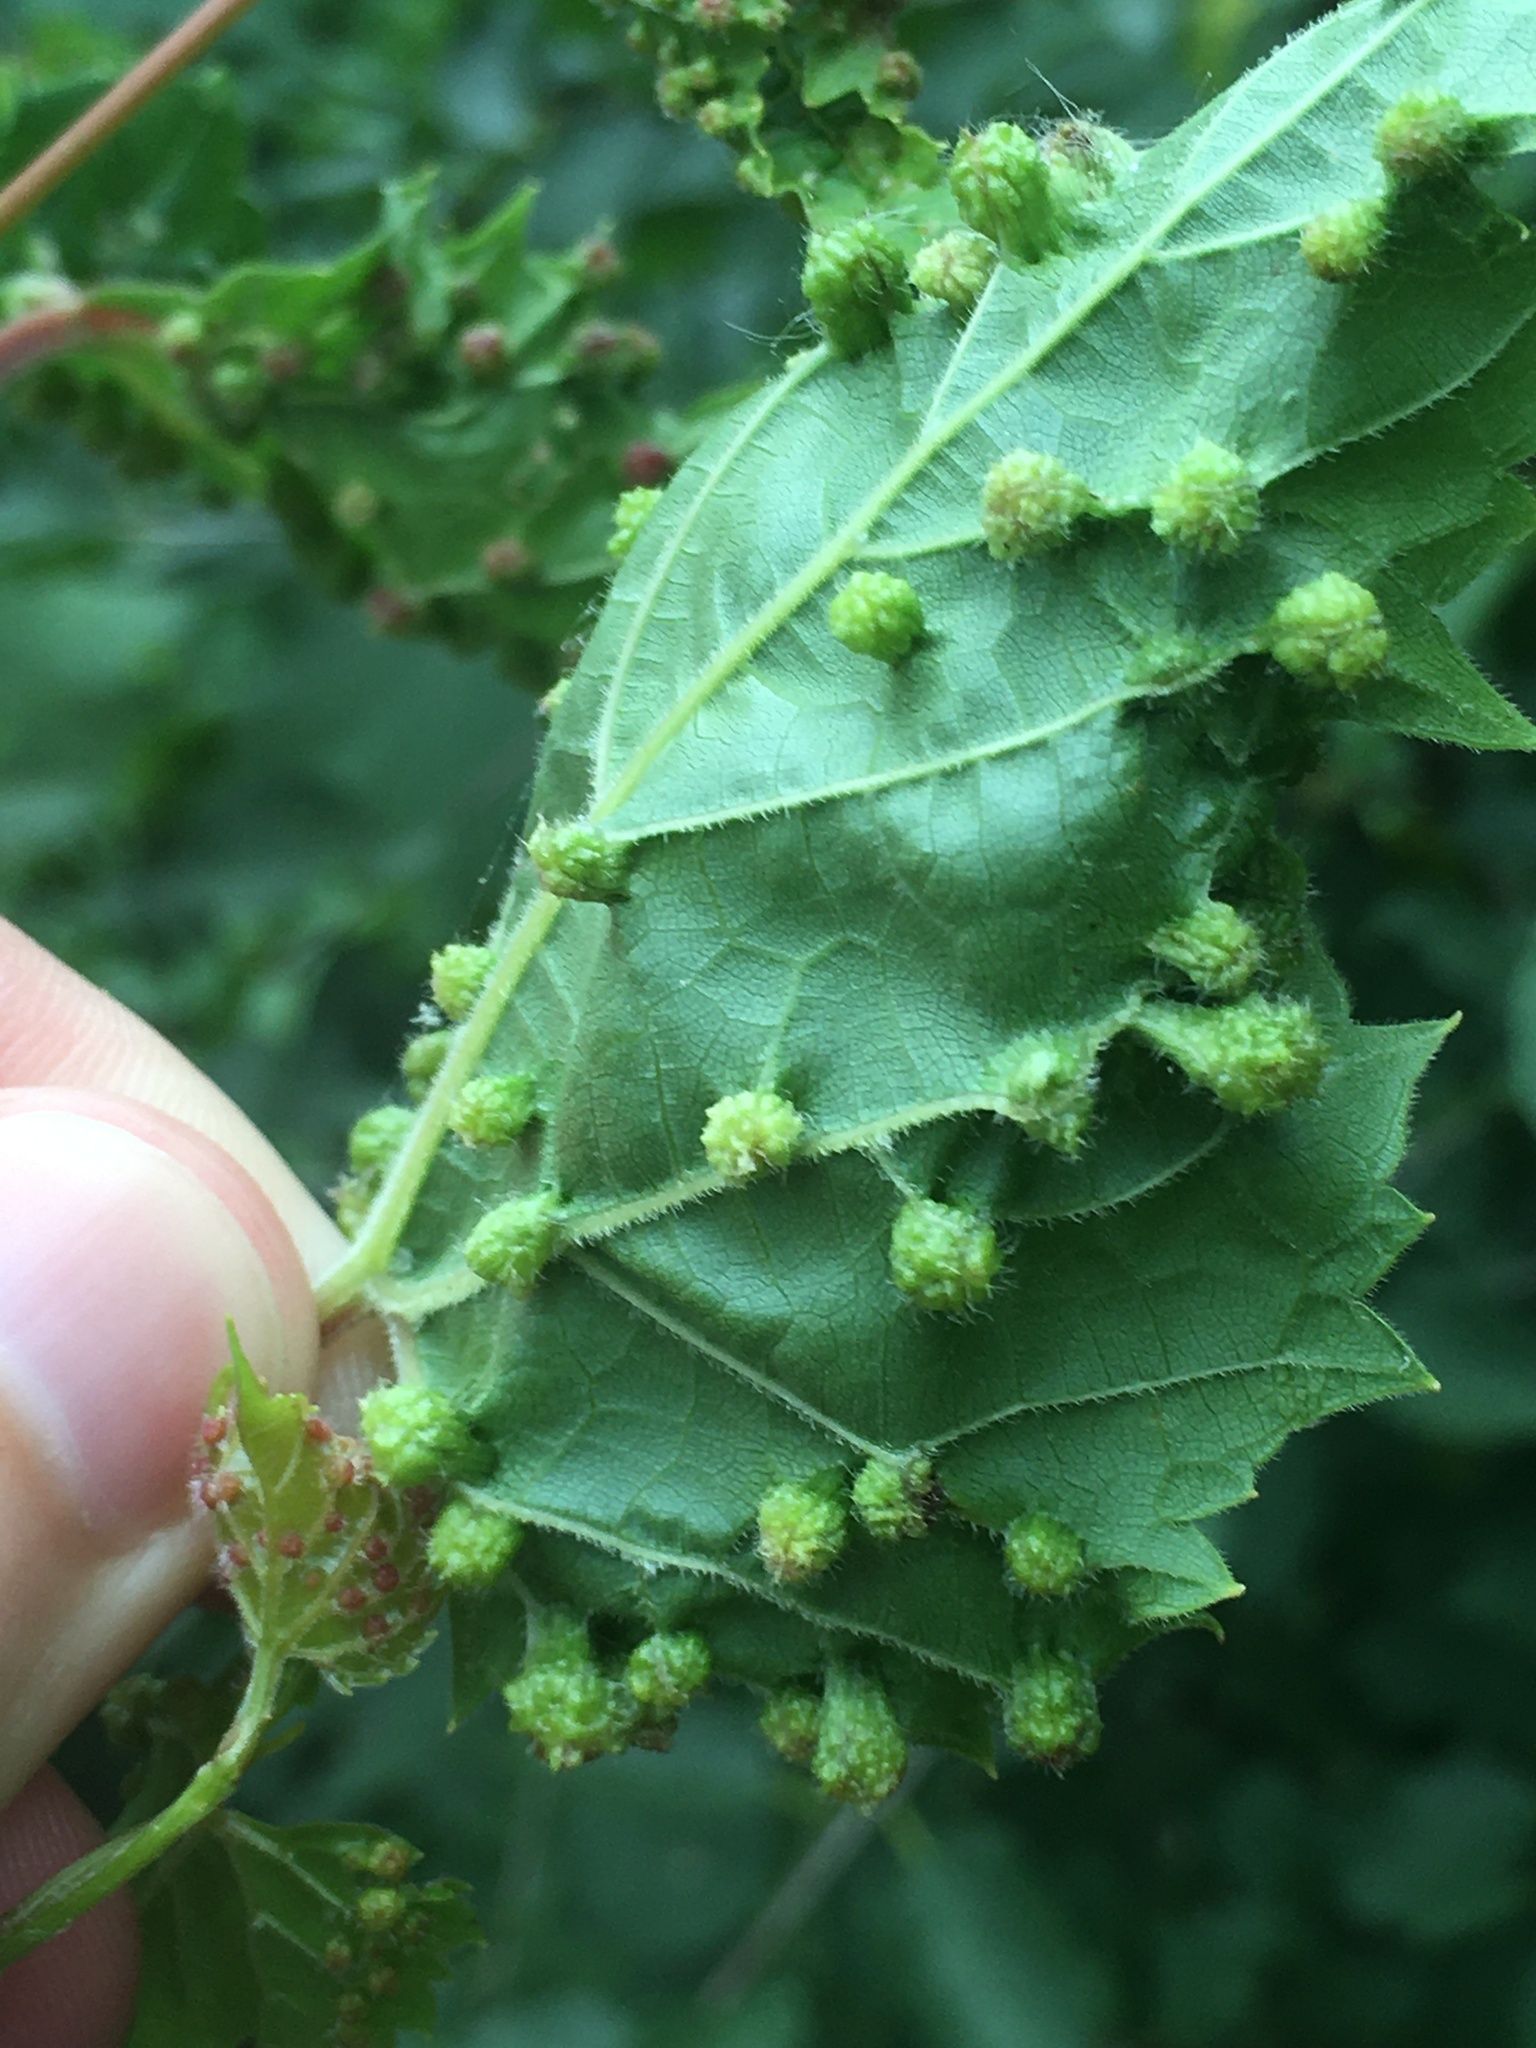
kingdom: Animalia
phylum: Arthropoda
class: Insecta
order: Hemiptera
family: Phylloxeridae
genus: Daktulosphaira
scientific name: Daktulosphaira vitifoliae
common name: Grape phylloxera
